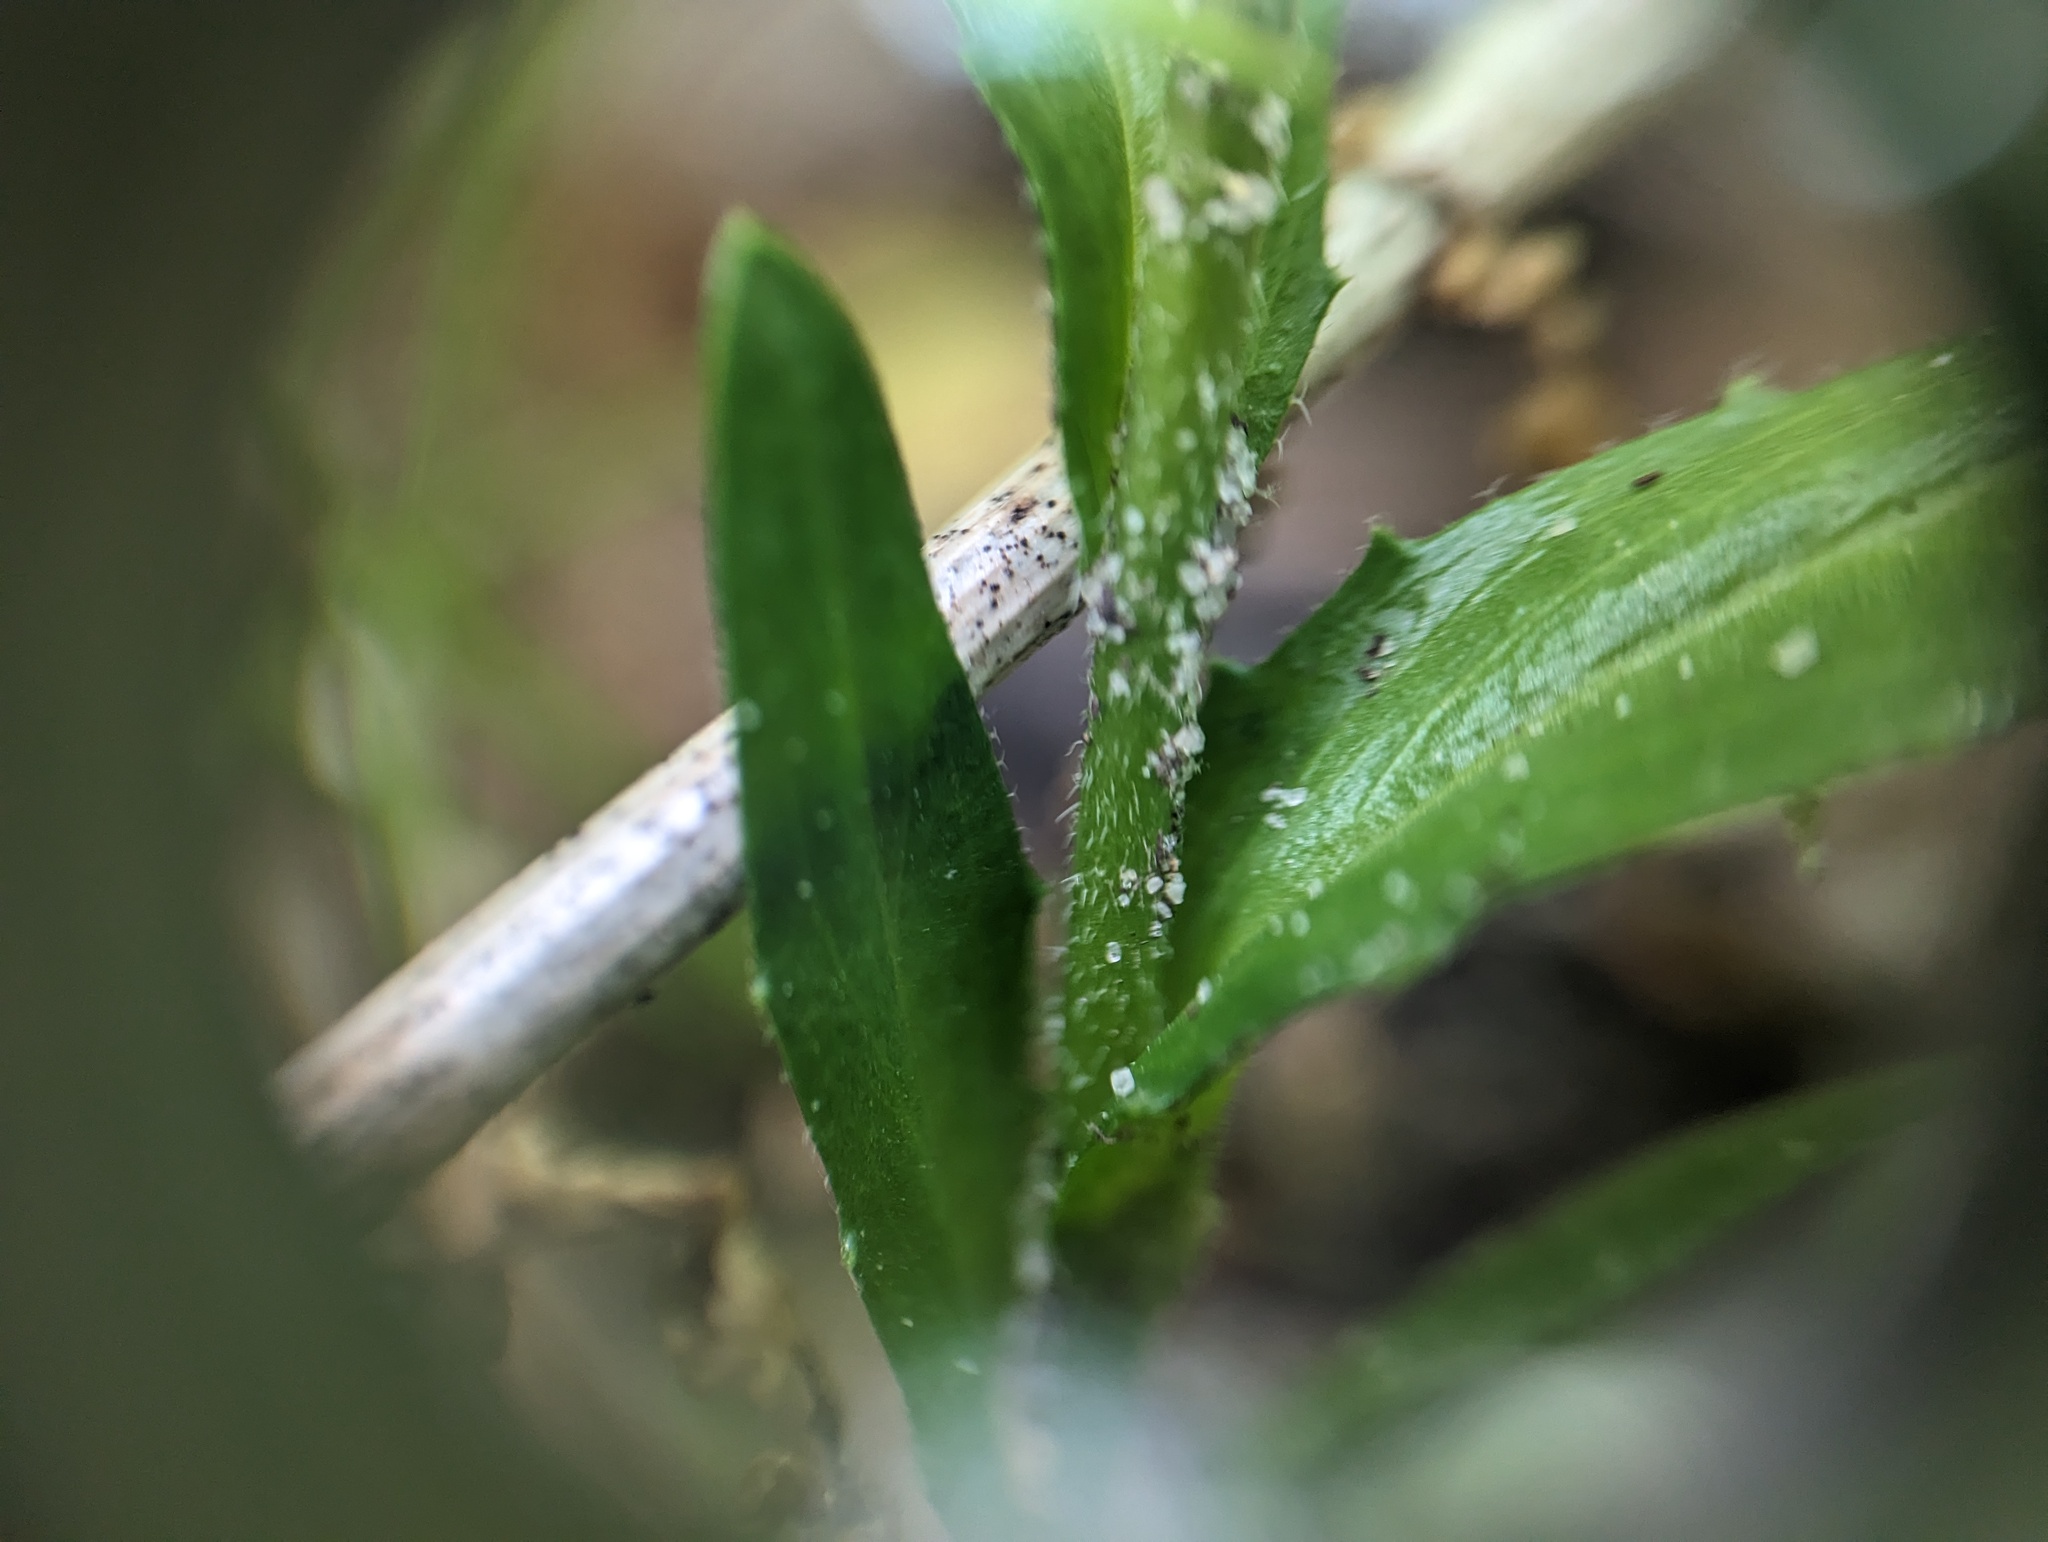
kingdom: Plantae
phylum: Tracheophyta
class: Magnoliopsida
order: Brassicales
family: Brassicaceae
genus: Arabis
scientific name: Arabis adpressipilis
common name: Soft-haired rockcress
